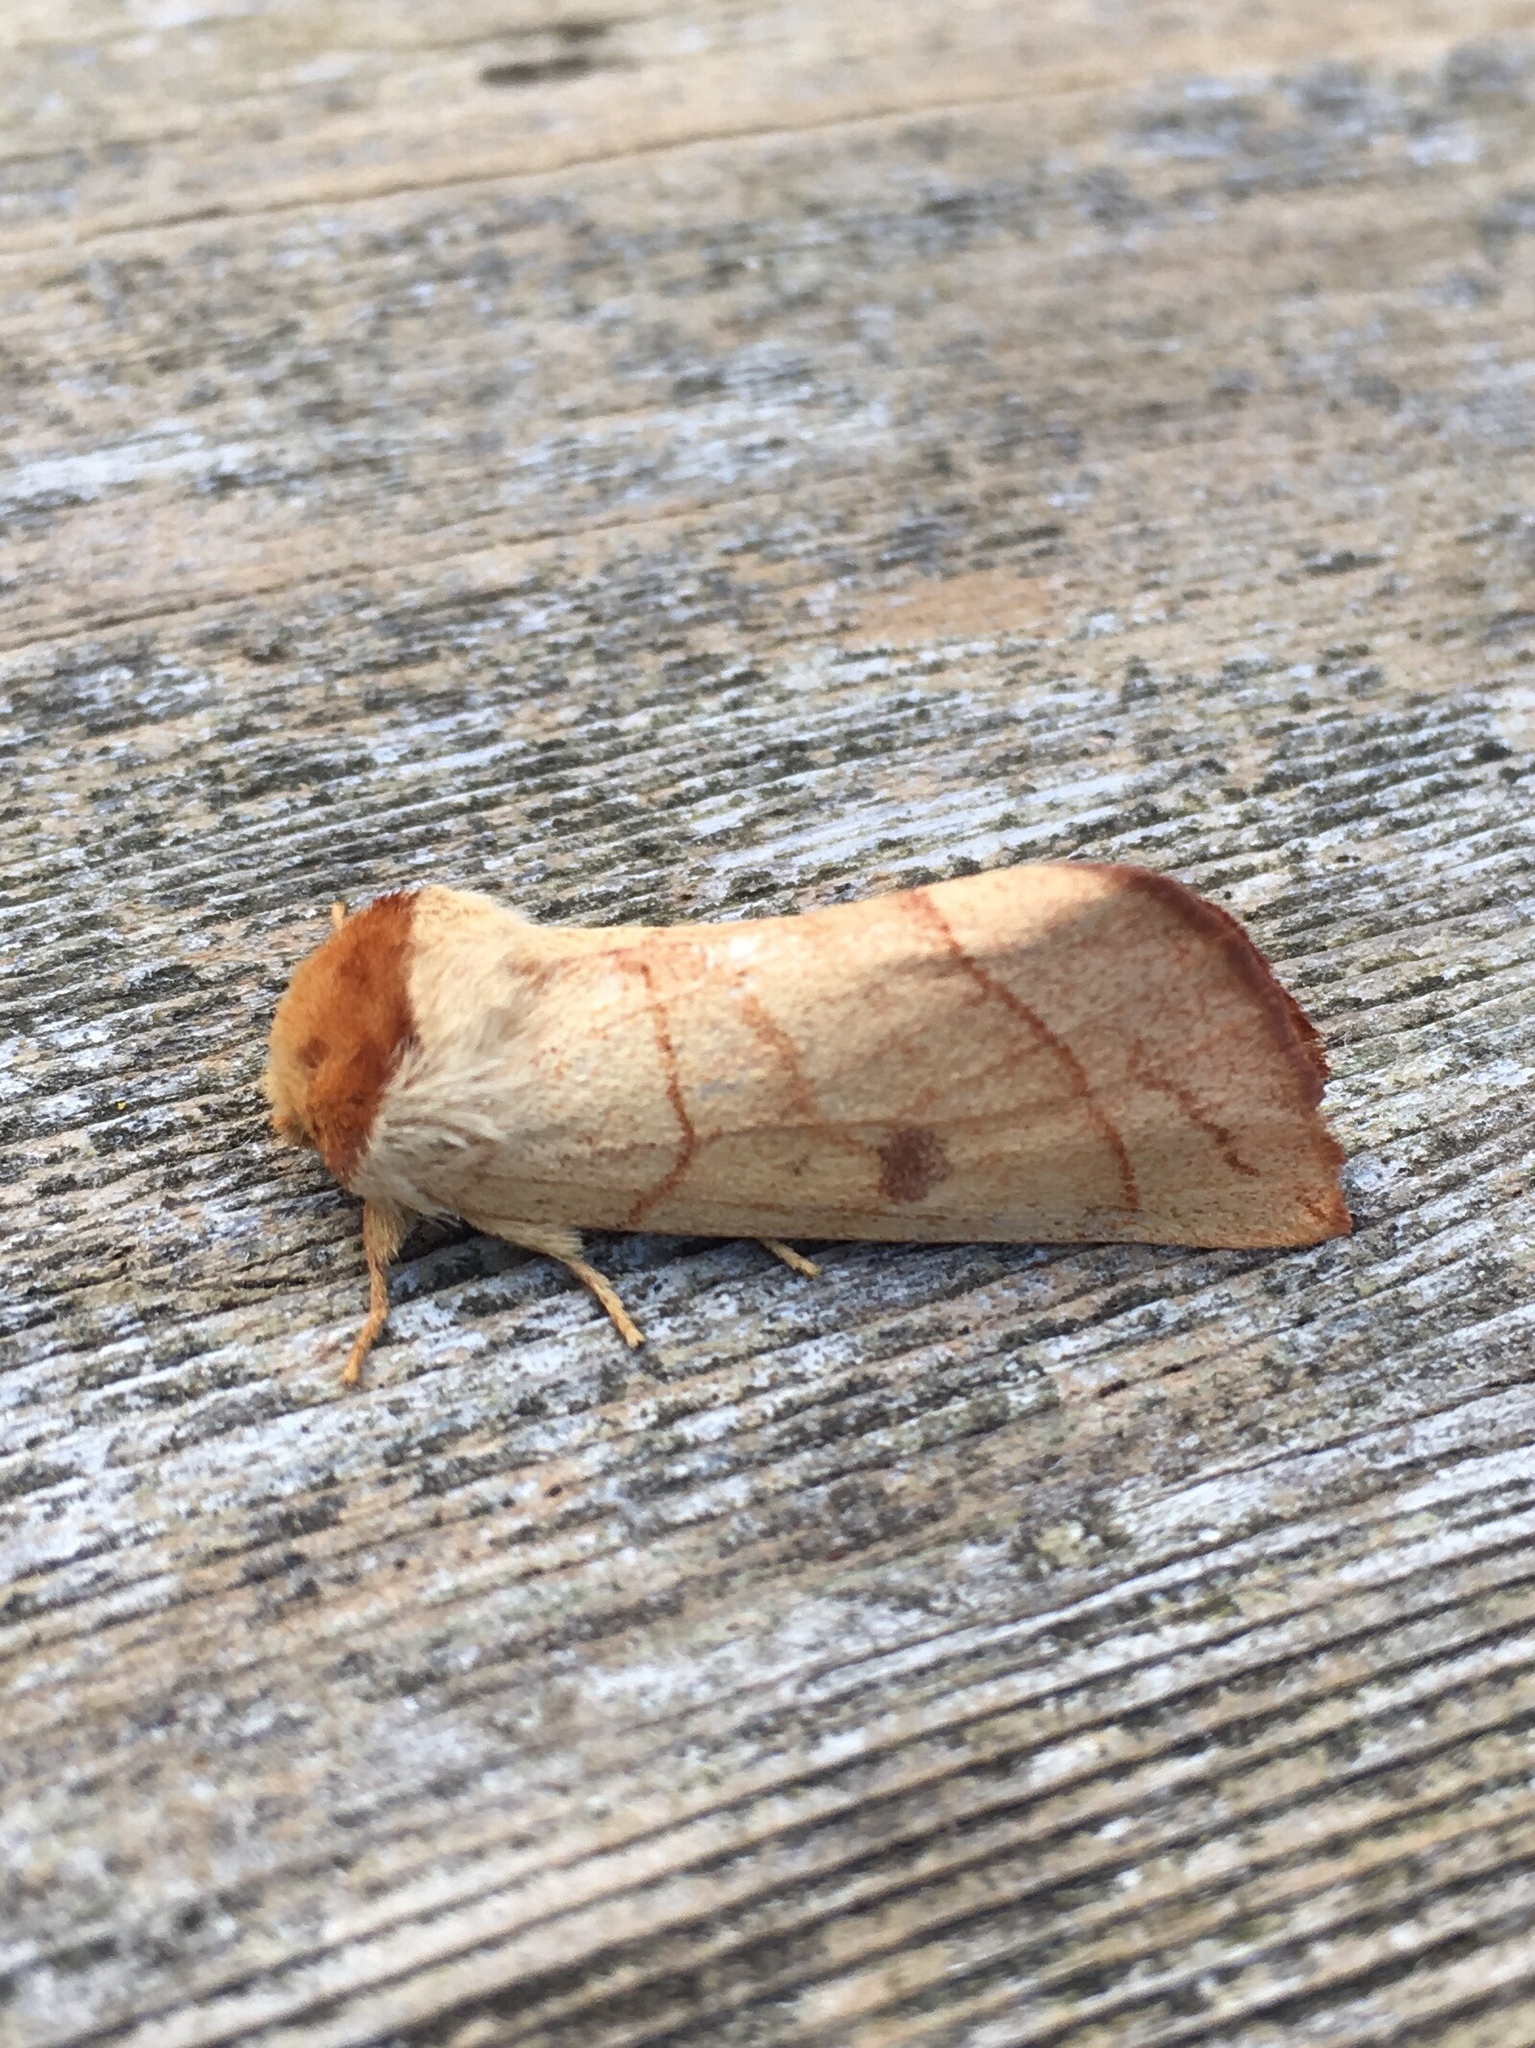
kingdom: Animalia
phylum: Arthropoda
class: Insecta
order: Lepidoptera
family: Notodontidae
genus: Datana
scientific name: Datana perspicua
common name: Spotted datana
